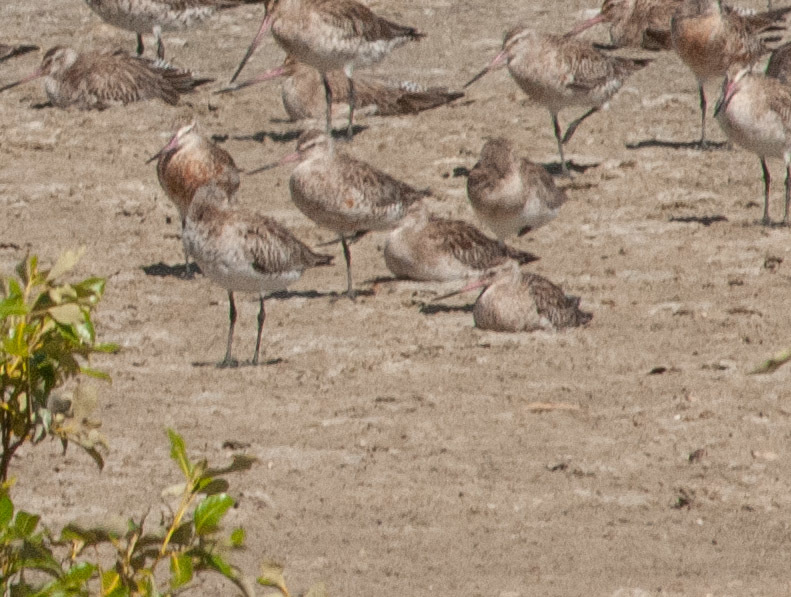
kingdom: Animalia
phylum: Chordata
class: Aves
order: Charadriiformes
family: Scolopacidae
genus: Limosa
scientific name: Limosa lapponica
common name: Bar-tailed godwit
